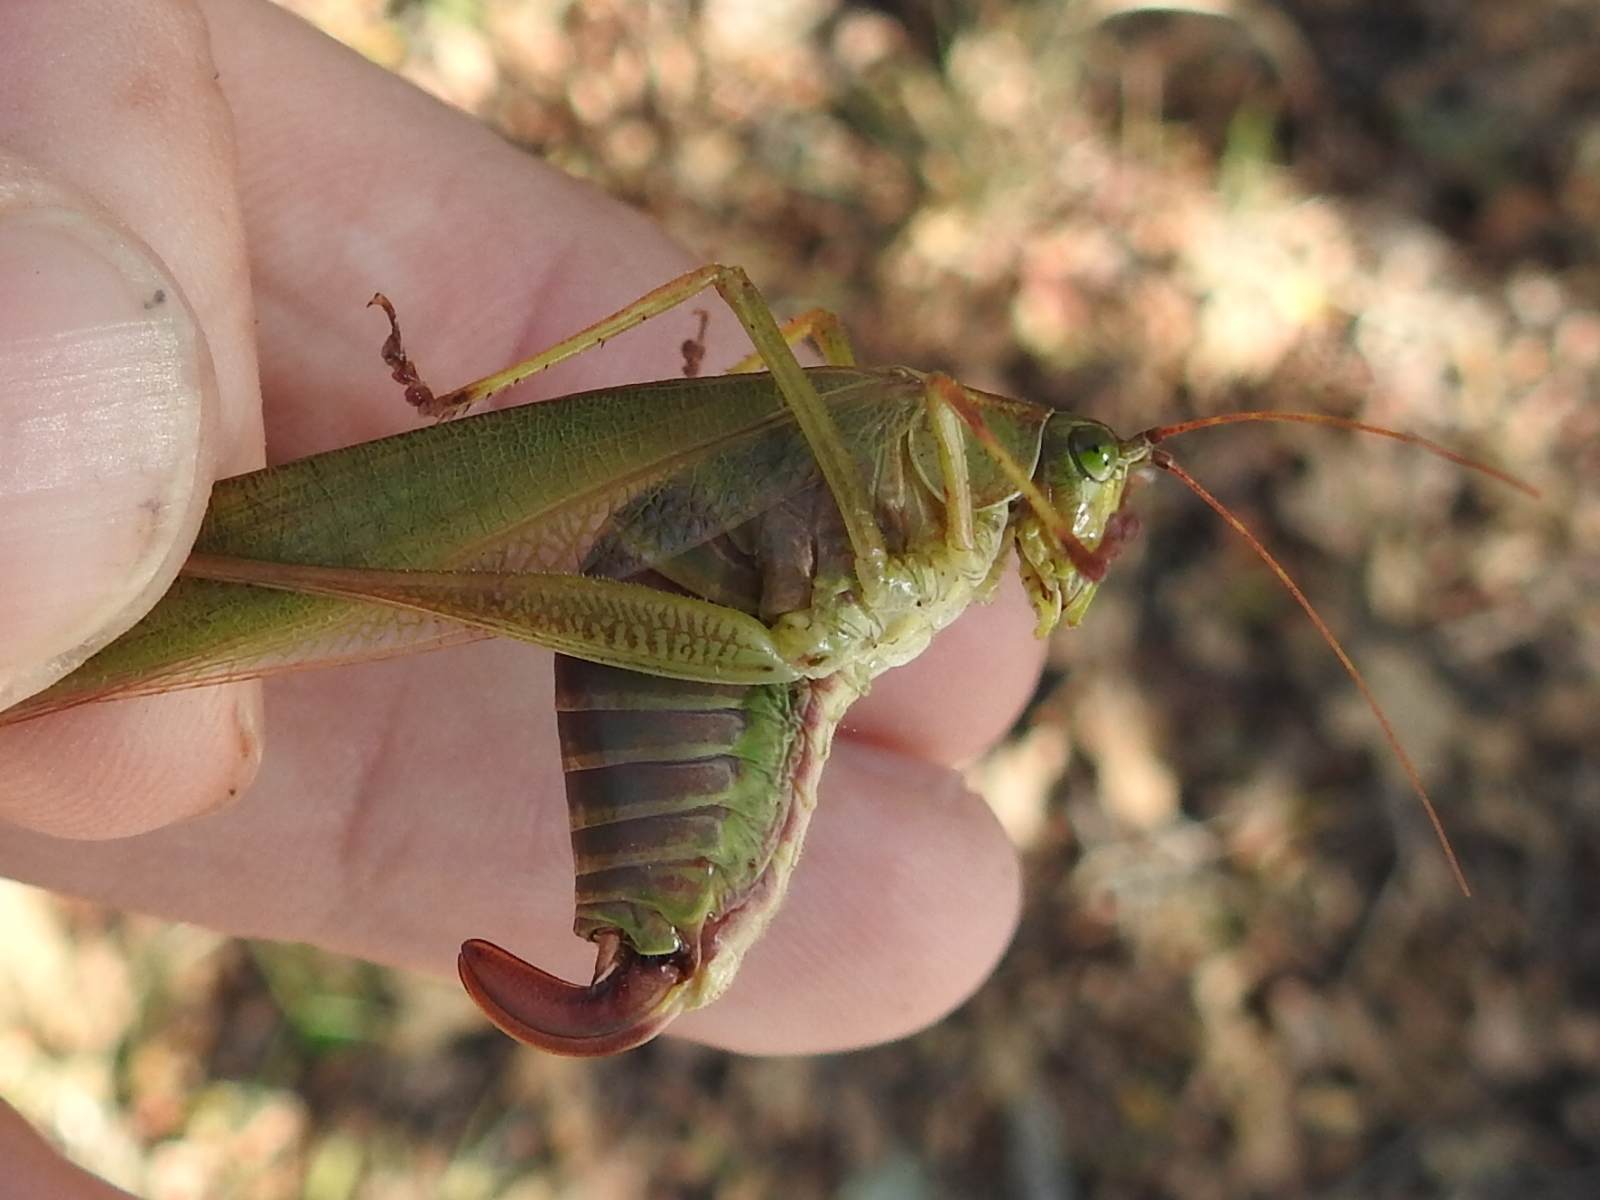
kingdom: Animalia
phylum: Arthropoda
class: Insecta
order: Orthoptera
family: Tettigoniidae
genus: Scudderia
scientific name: Scudderia furcata
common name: Fork-tailed bush katydid
